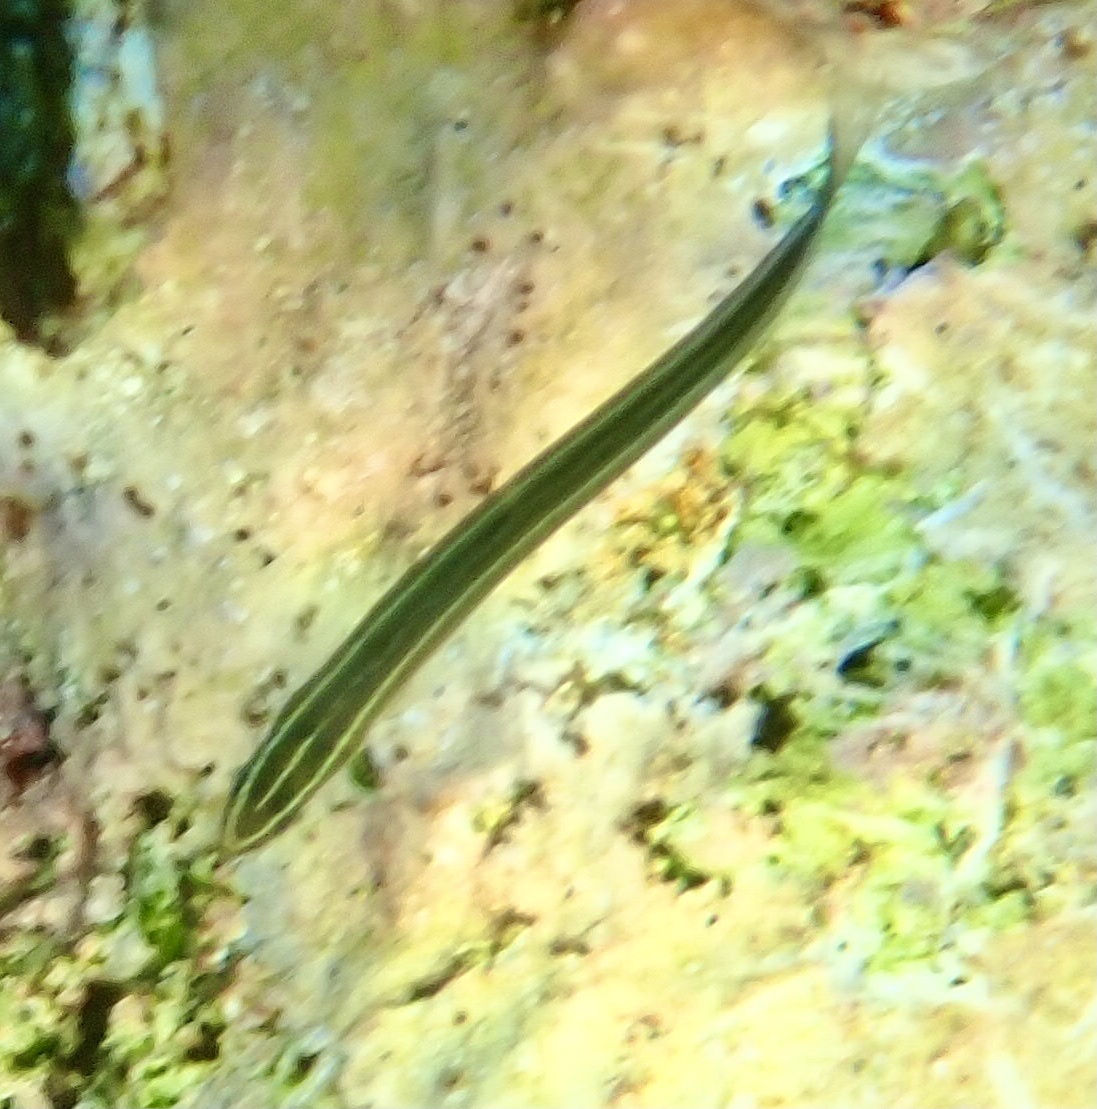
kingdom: Animalia
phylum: Chordata
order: Perciformes
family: Blenniidae
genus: Plagiotremus
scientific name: Plagiotremus tapeinosoma
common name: Hit and run blenny
